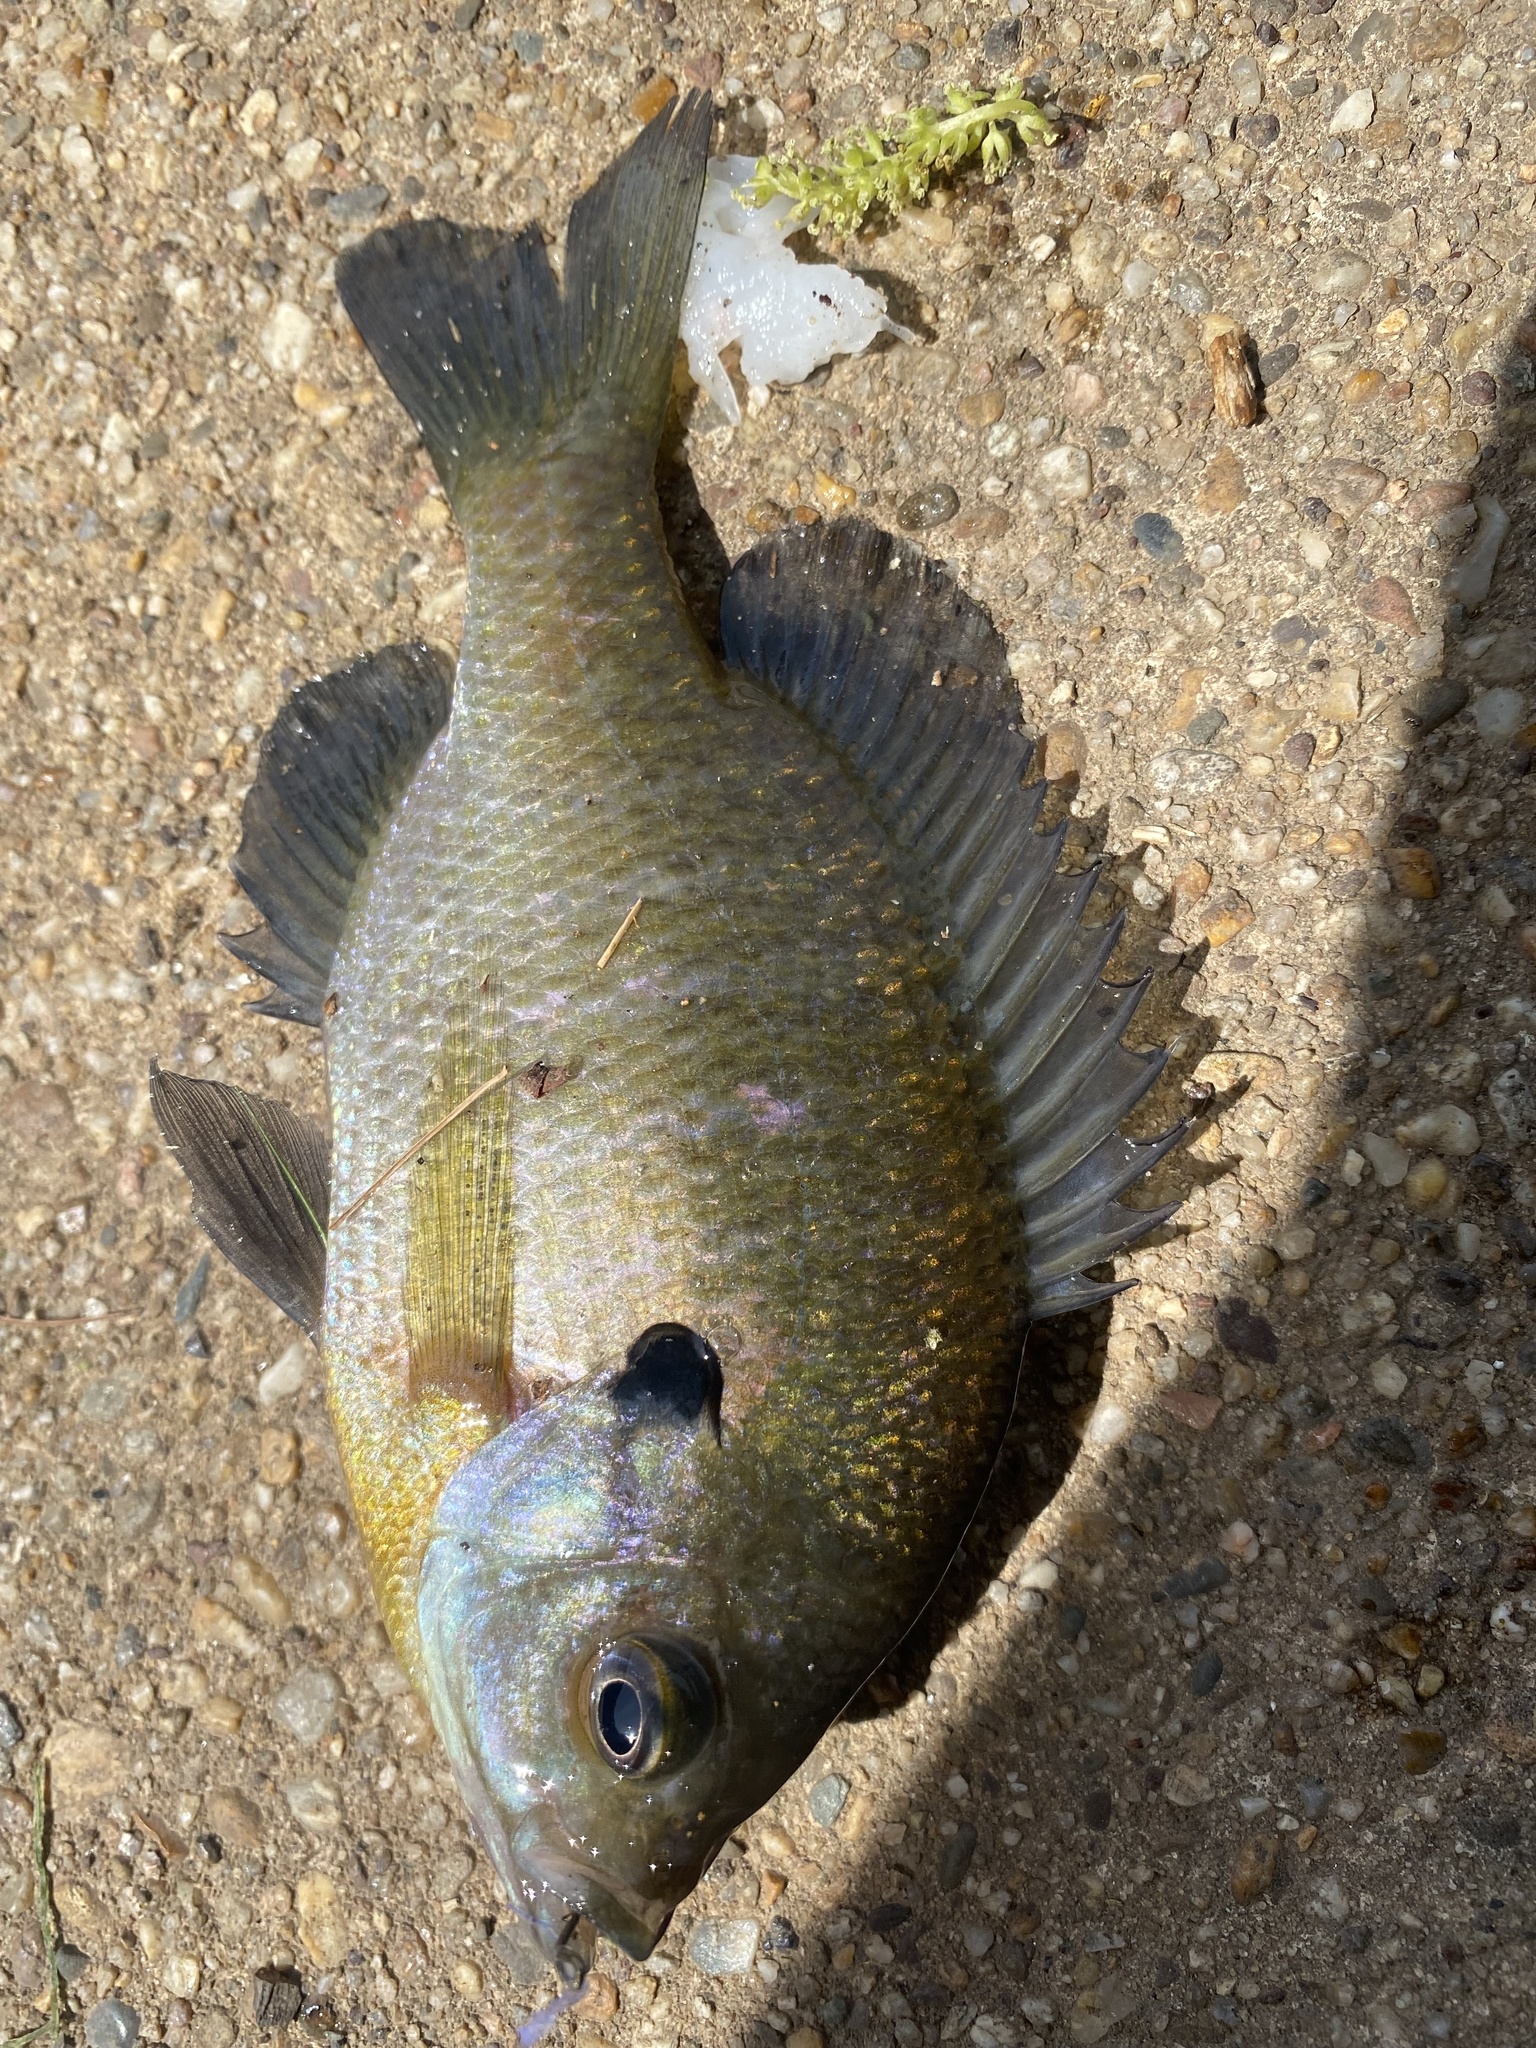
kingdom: Animalia
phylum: Chordata
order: Perciformes
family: Centrarchidae
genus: Lepomis
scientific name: Lepomis macrochirus
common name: Bluegill
